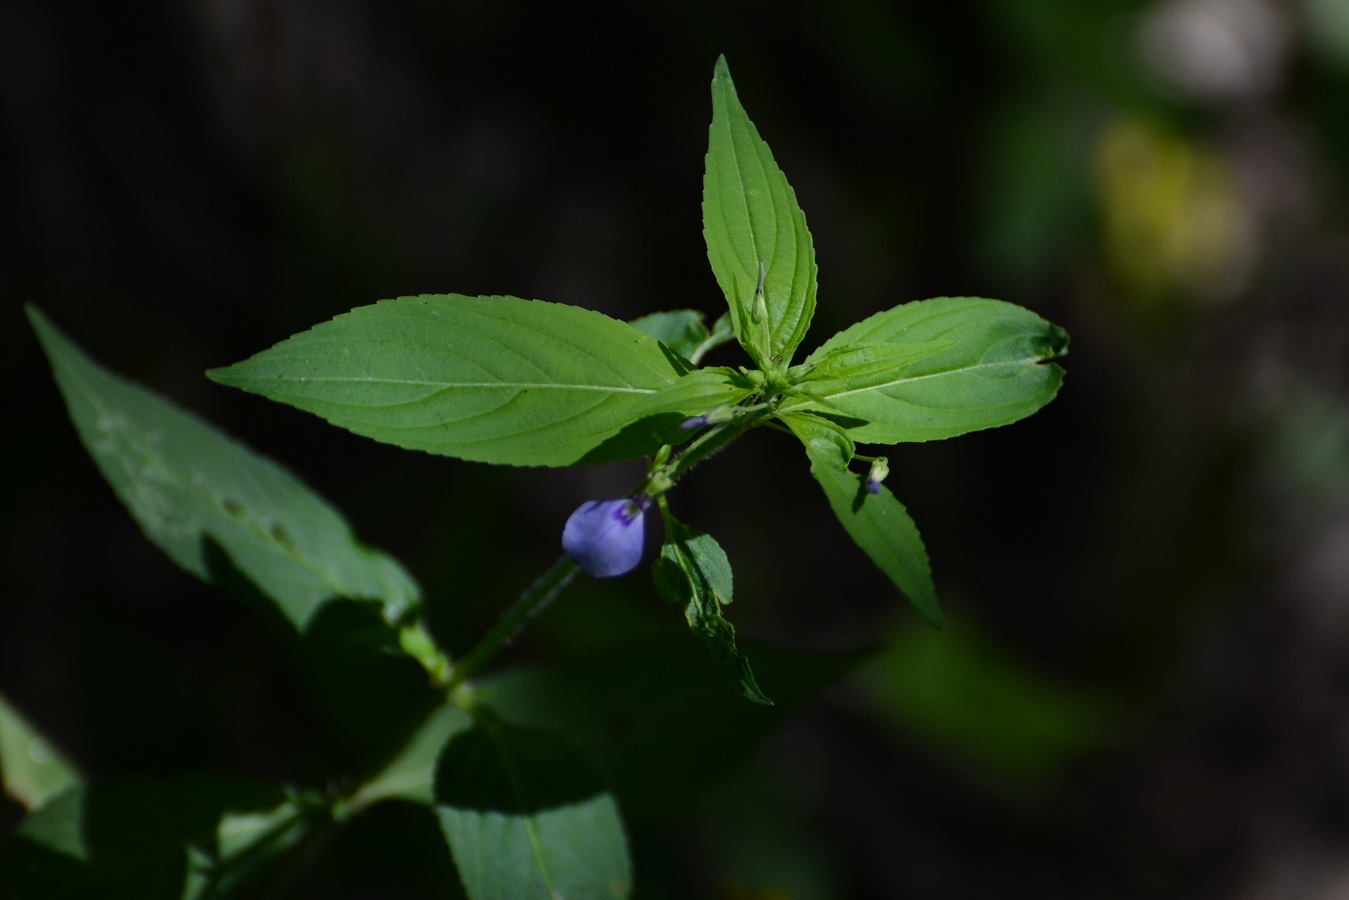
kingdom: Plantae
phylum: Tracheophyta
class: Magnoliopsida
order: Malpighiales
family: Violaceae
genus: Pombalia
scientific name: Pombalia glabra
